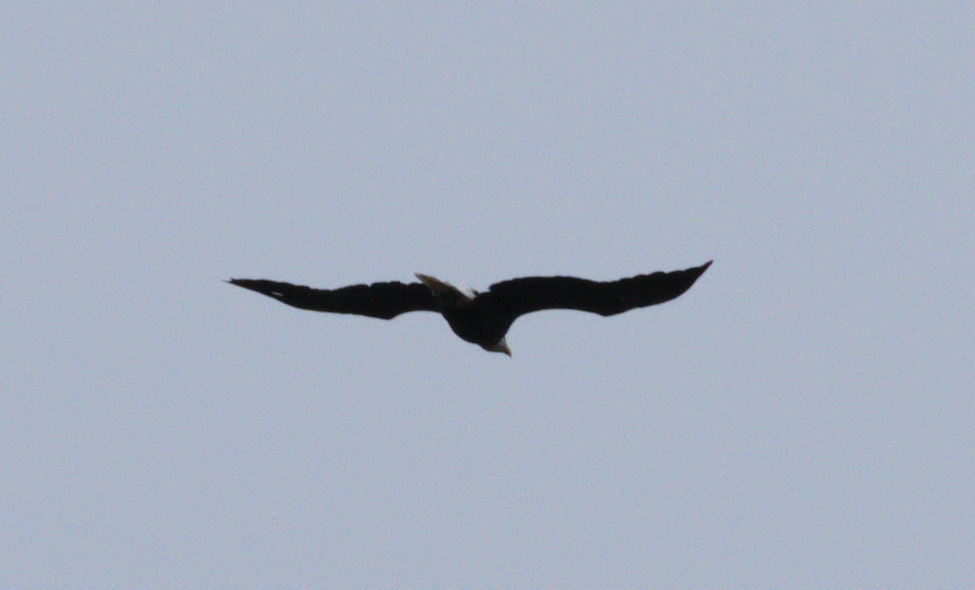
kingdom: Animalia
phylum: Chordata
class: Aves
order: Accipitriformes
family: Accipitridae
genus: Haliaeetus
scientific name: Haliaeetus leucocephalus
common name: Bald eagle
